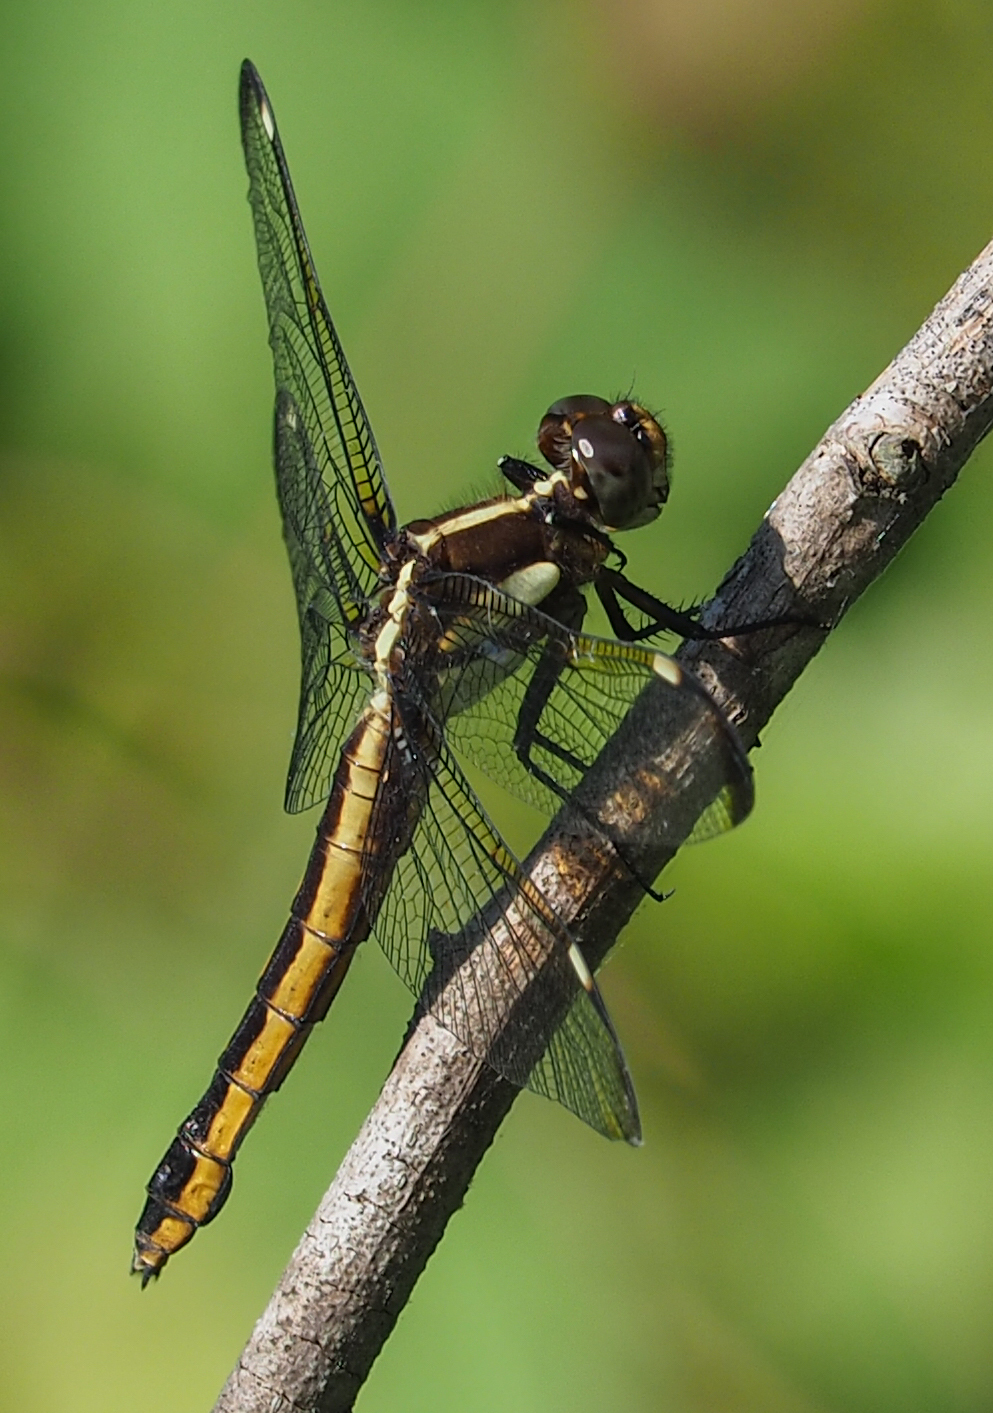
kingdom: Animalia
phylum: Arthropoda
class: Insecta
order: Odonata
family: Libellulidae
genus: Libellula
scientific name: Libellula cyanea
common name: Spangled skimmer
